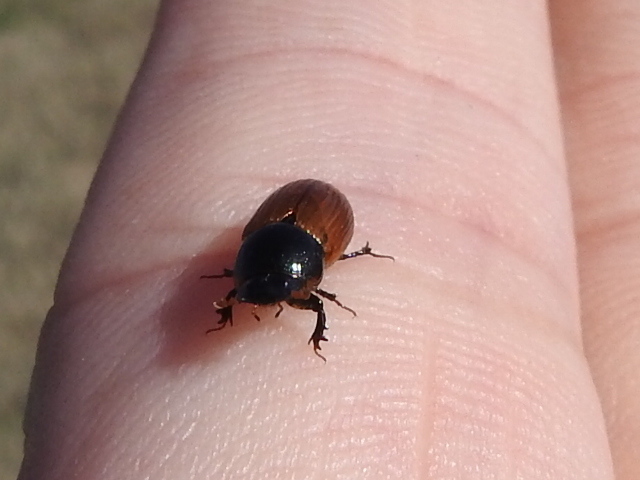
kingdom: Animalia
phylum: Arthropoda
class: Insecta
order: Coleoptera
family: Scarabaeidae
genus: Aphodius
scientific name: Aphodius pedellus
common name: Common dung beetle
